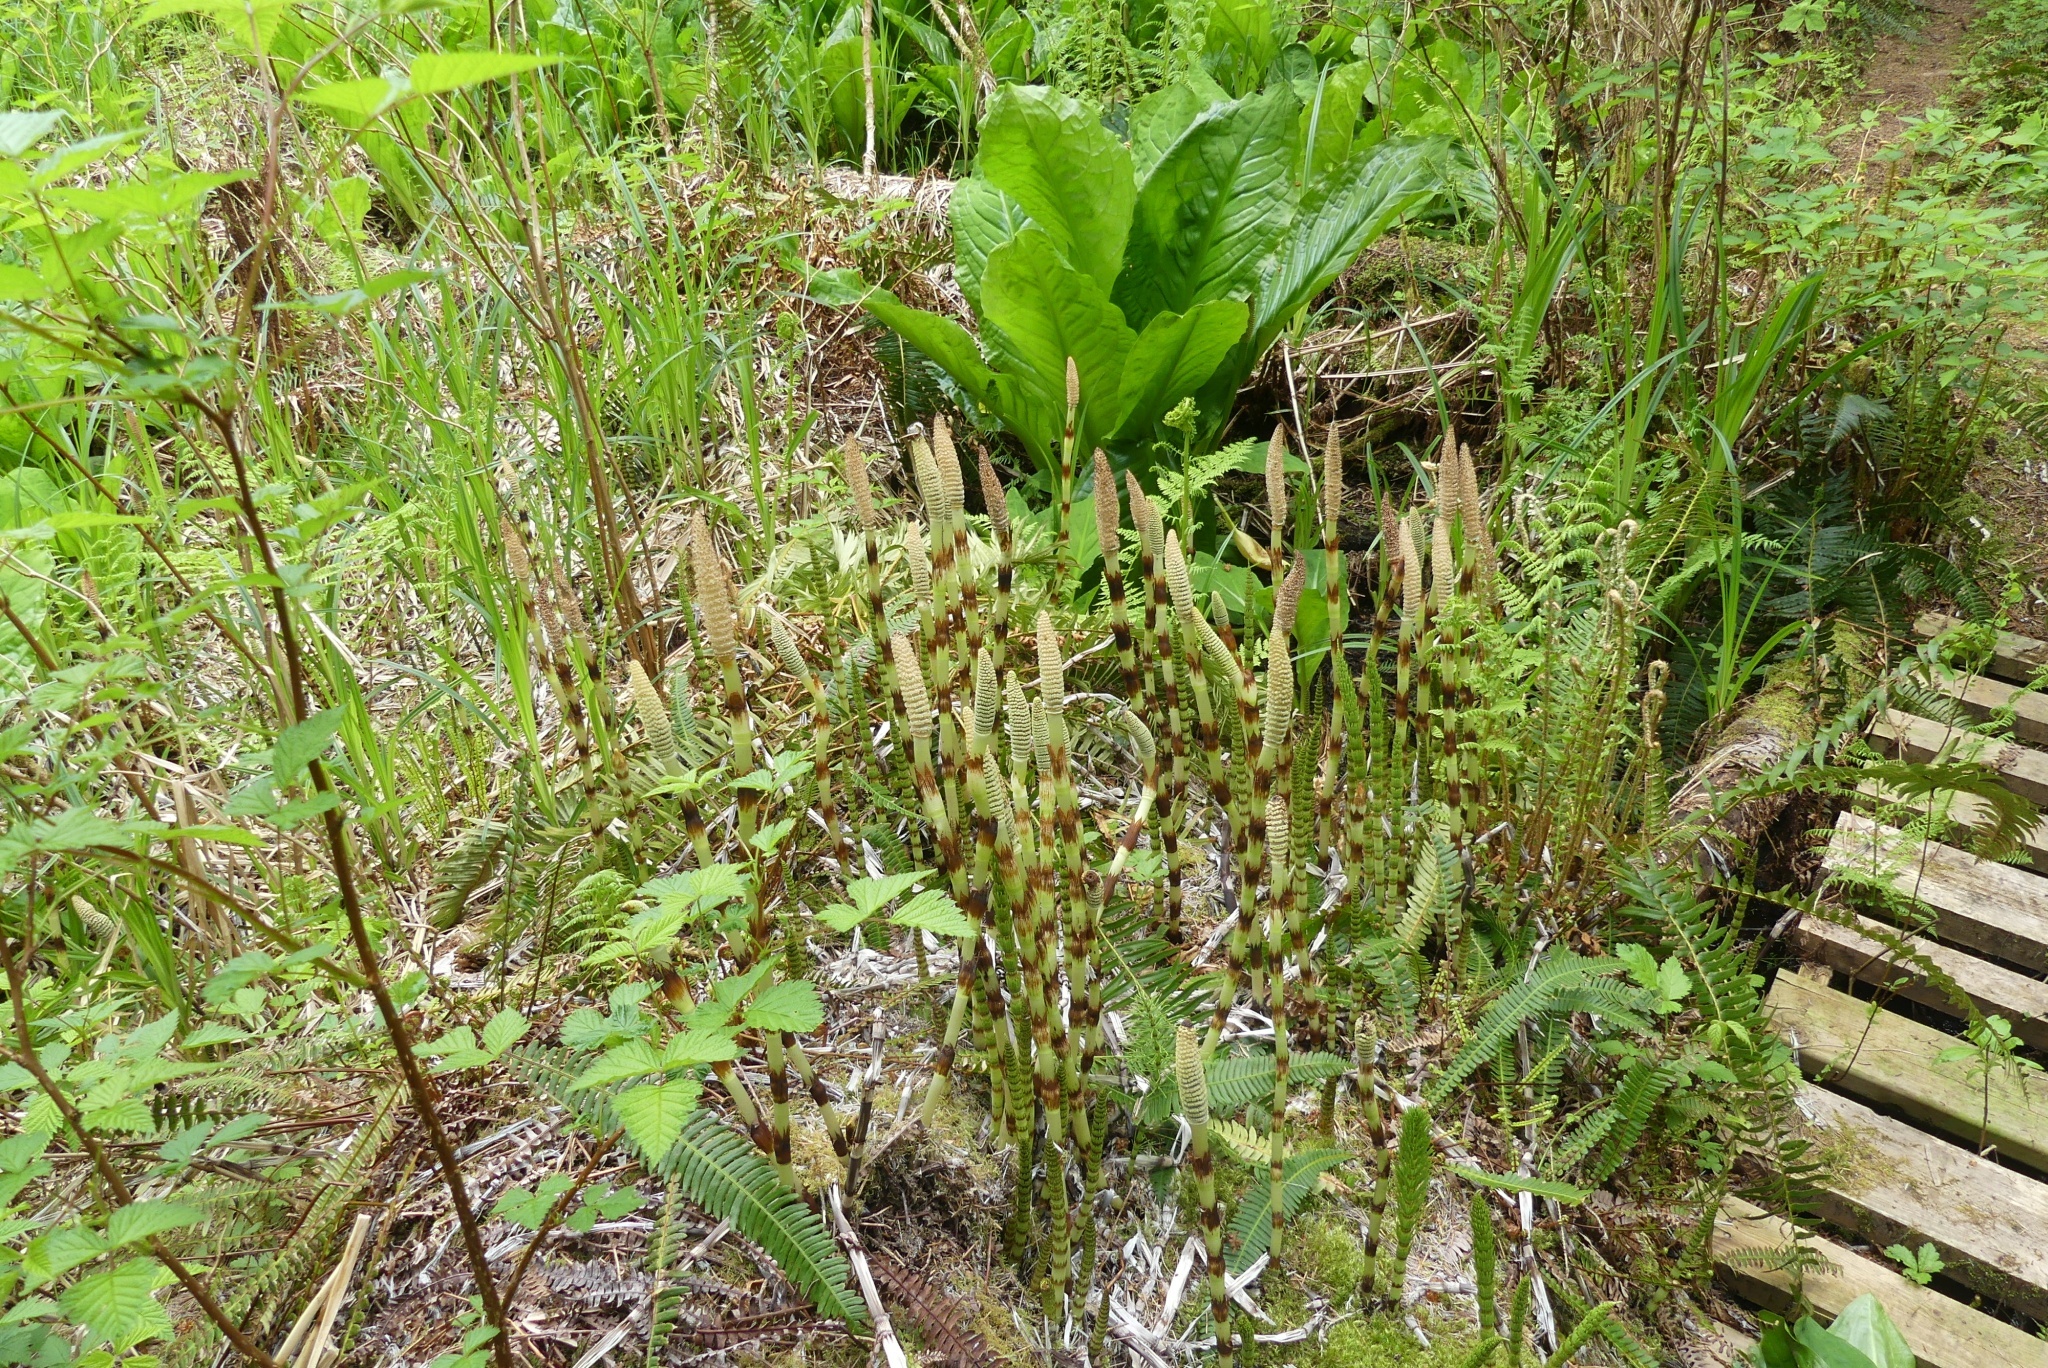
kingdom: Plantae
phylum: Tracheophyta
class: Polypodiopsida
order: Equisetales
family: Equisetaceae
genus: Equisetum
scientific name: Equisetum telmateia
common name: Great horsetail
